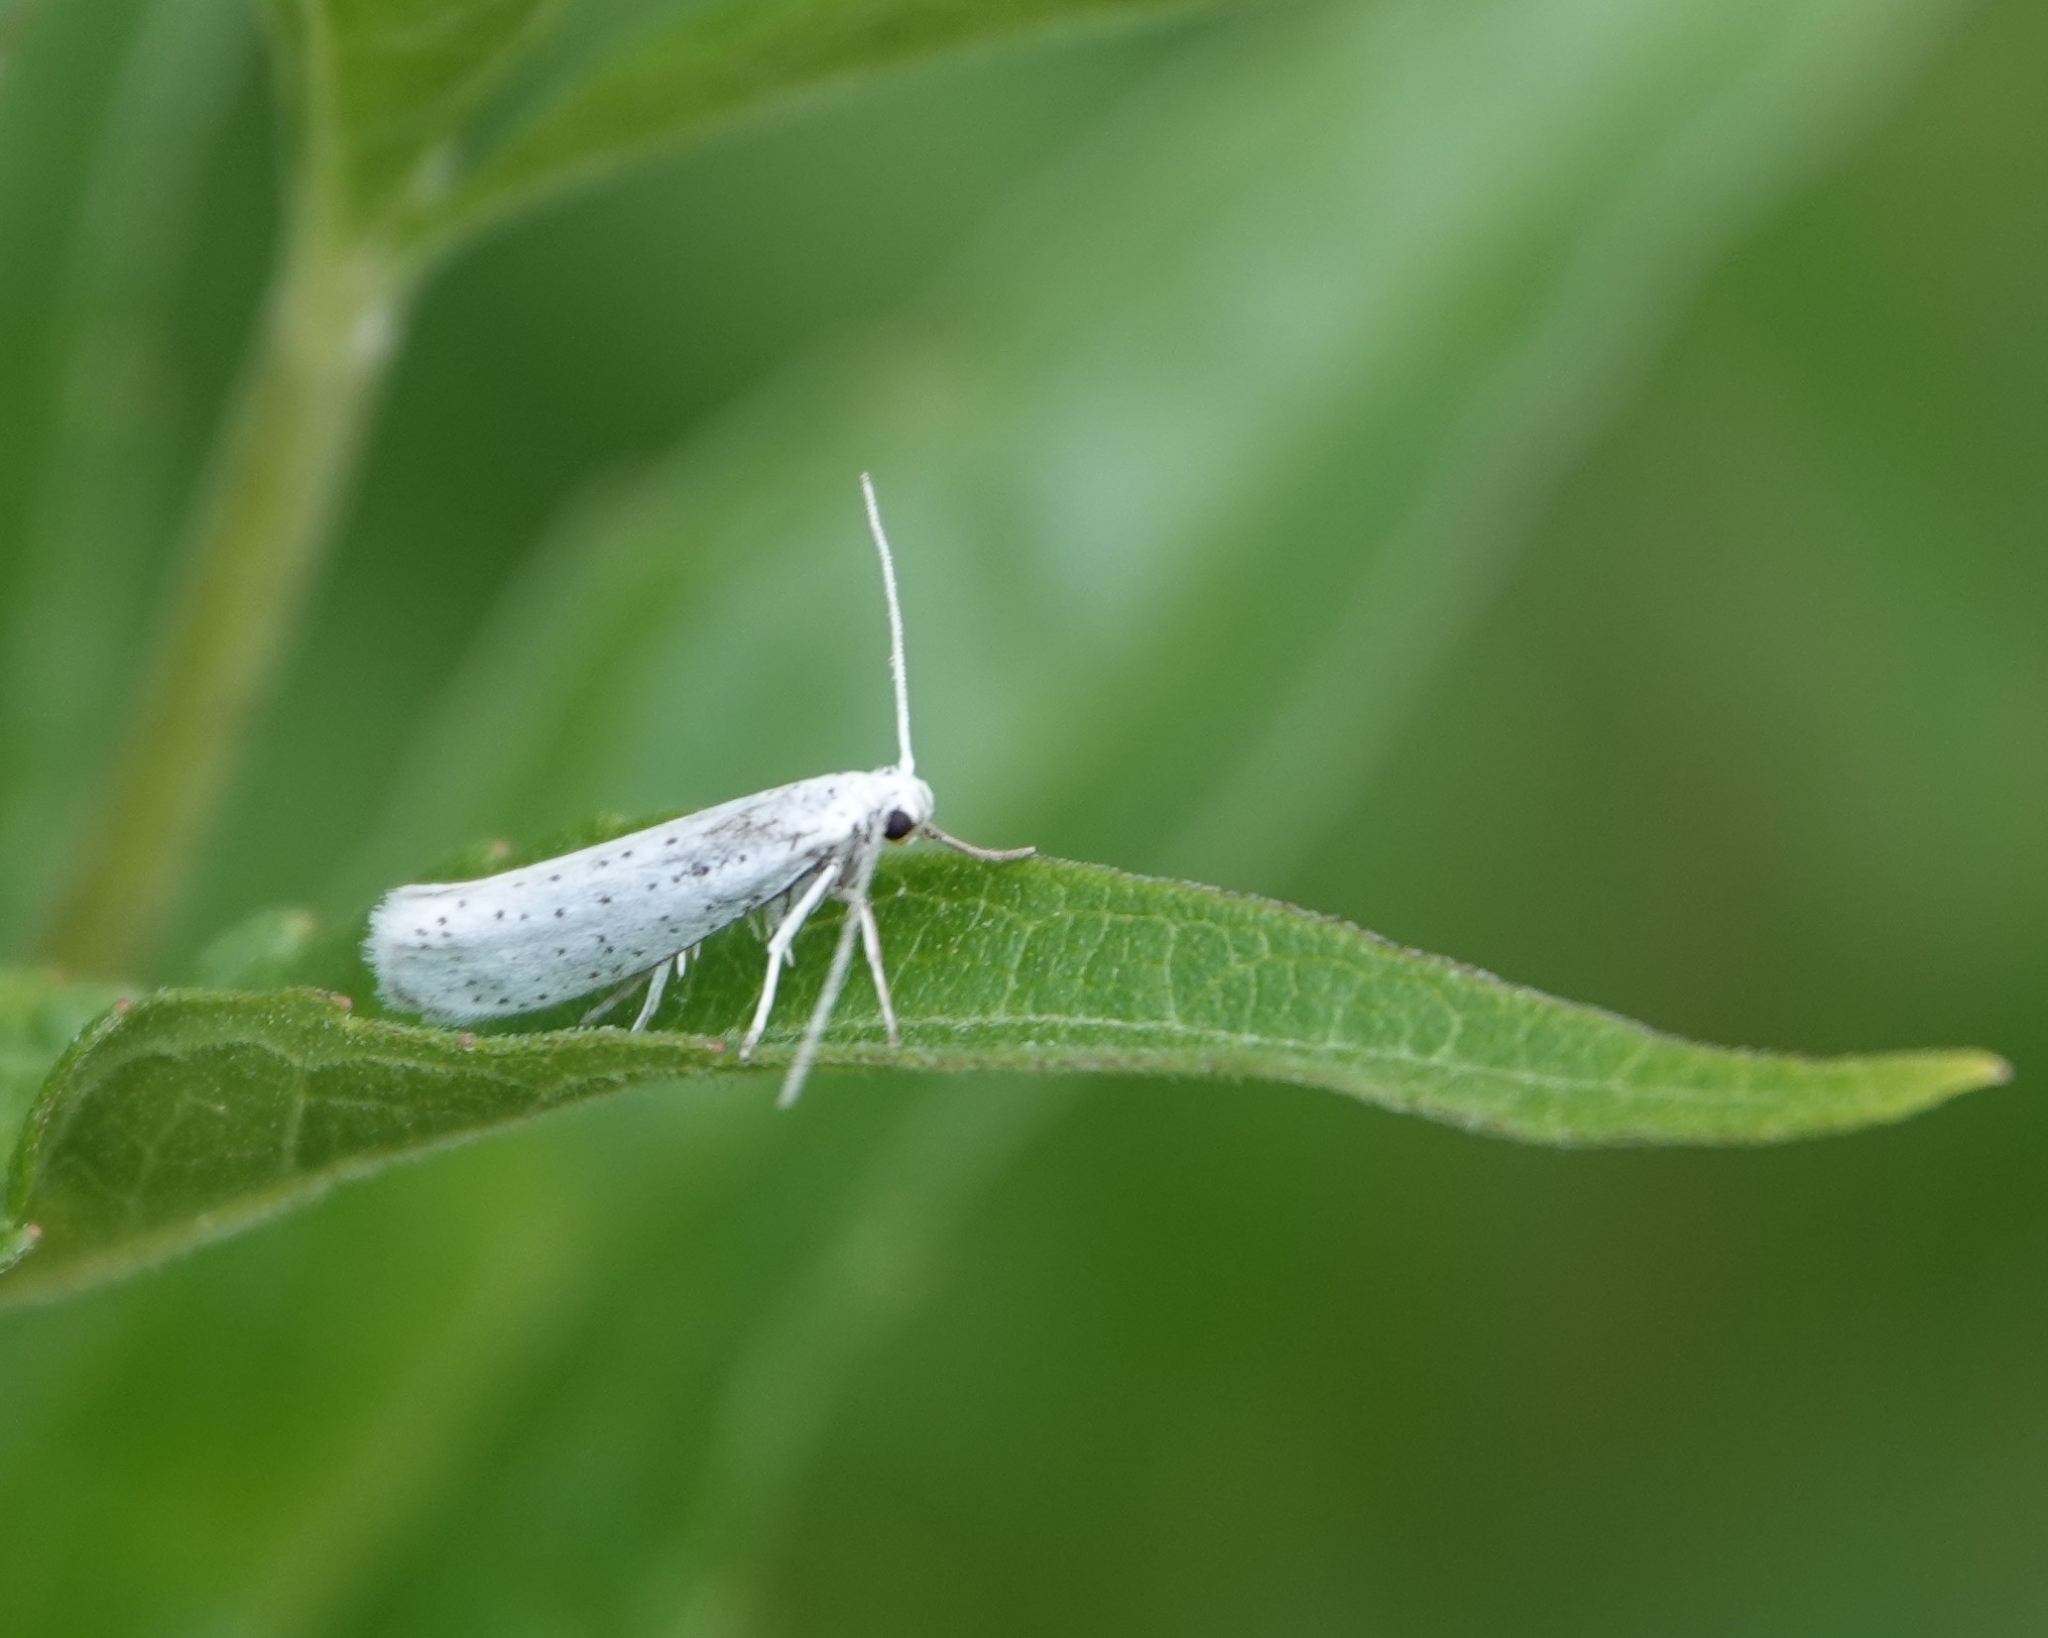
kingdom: Animalia
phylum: Arthropoda
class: Insecta
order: Lepidoptera
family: Yponomeutidae
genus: Yponomeuta
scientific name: Yponomeuta evonymella
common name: Bird-cherry ermine
